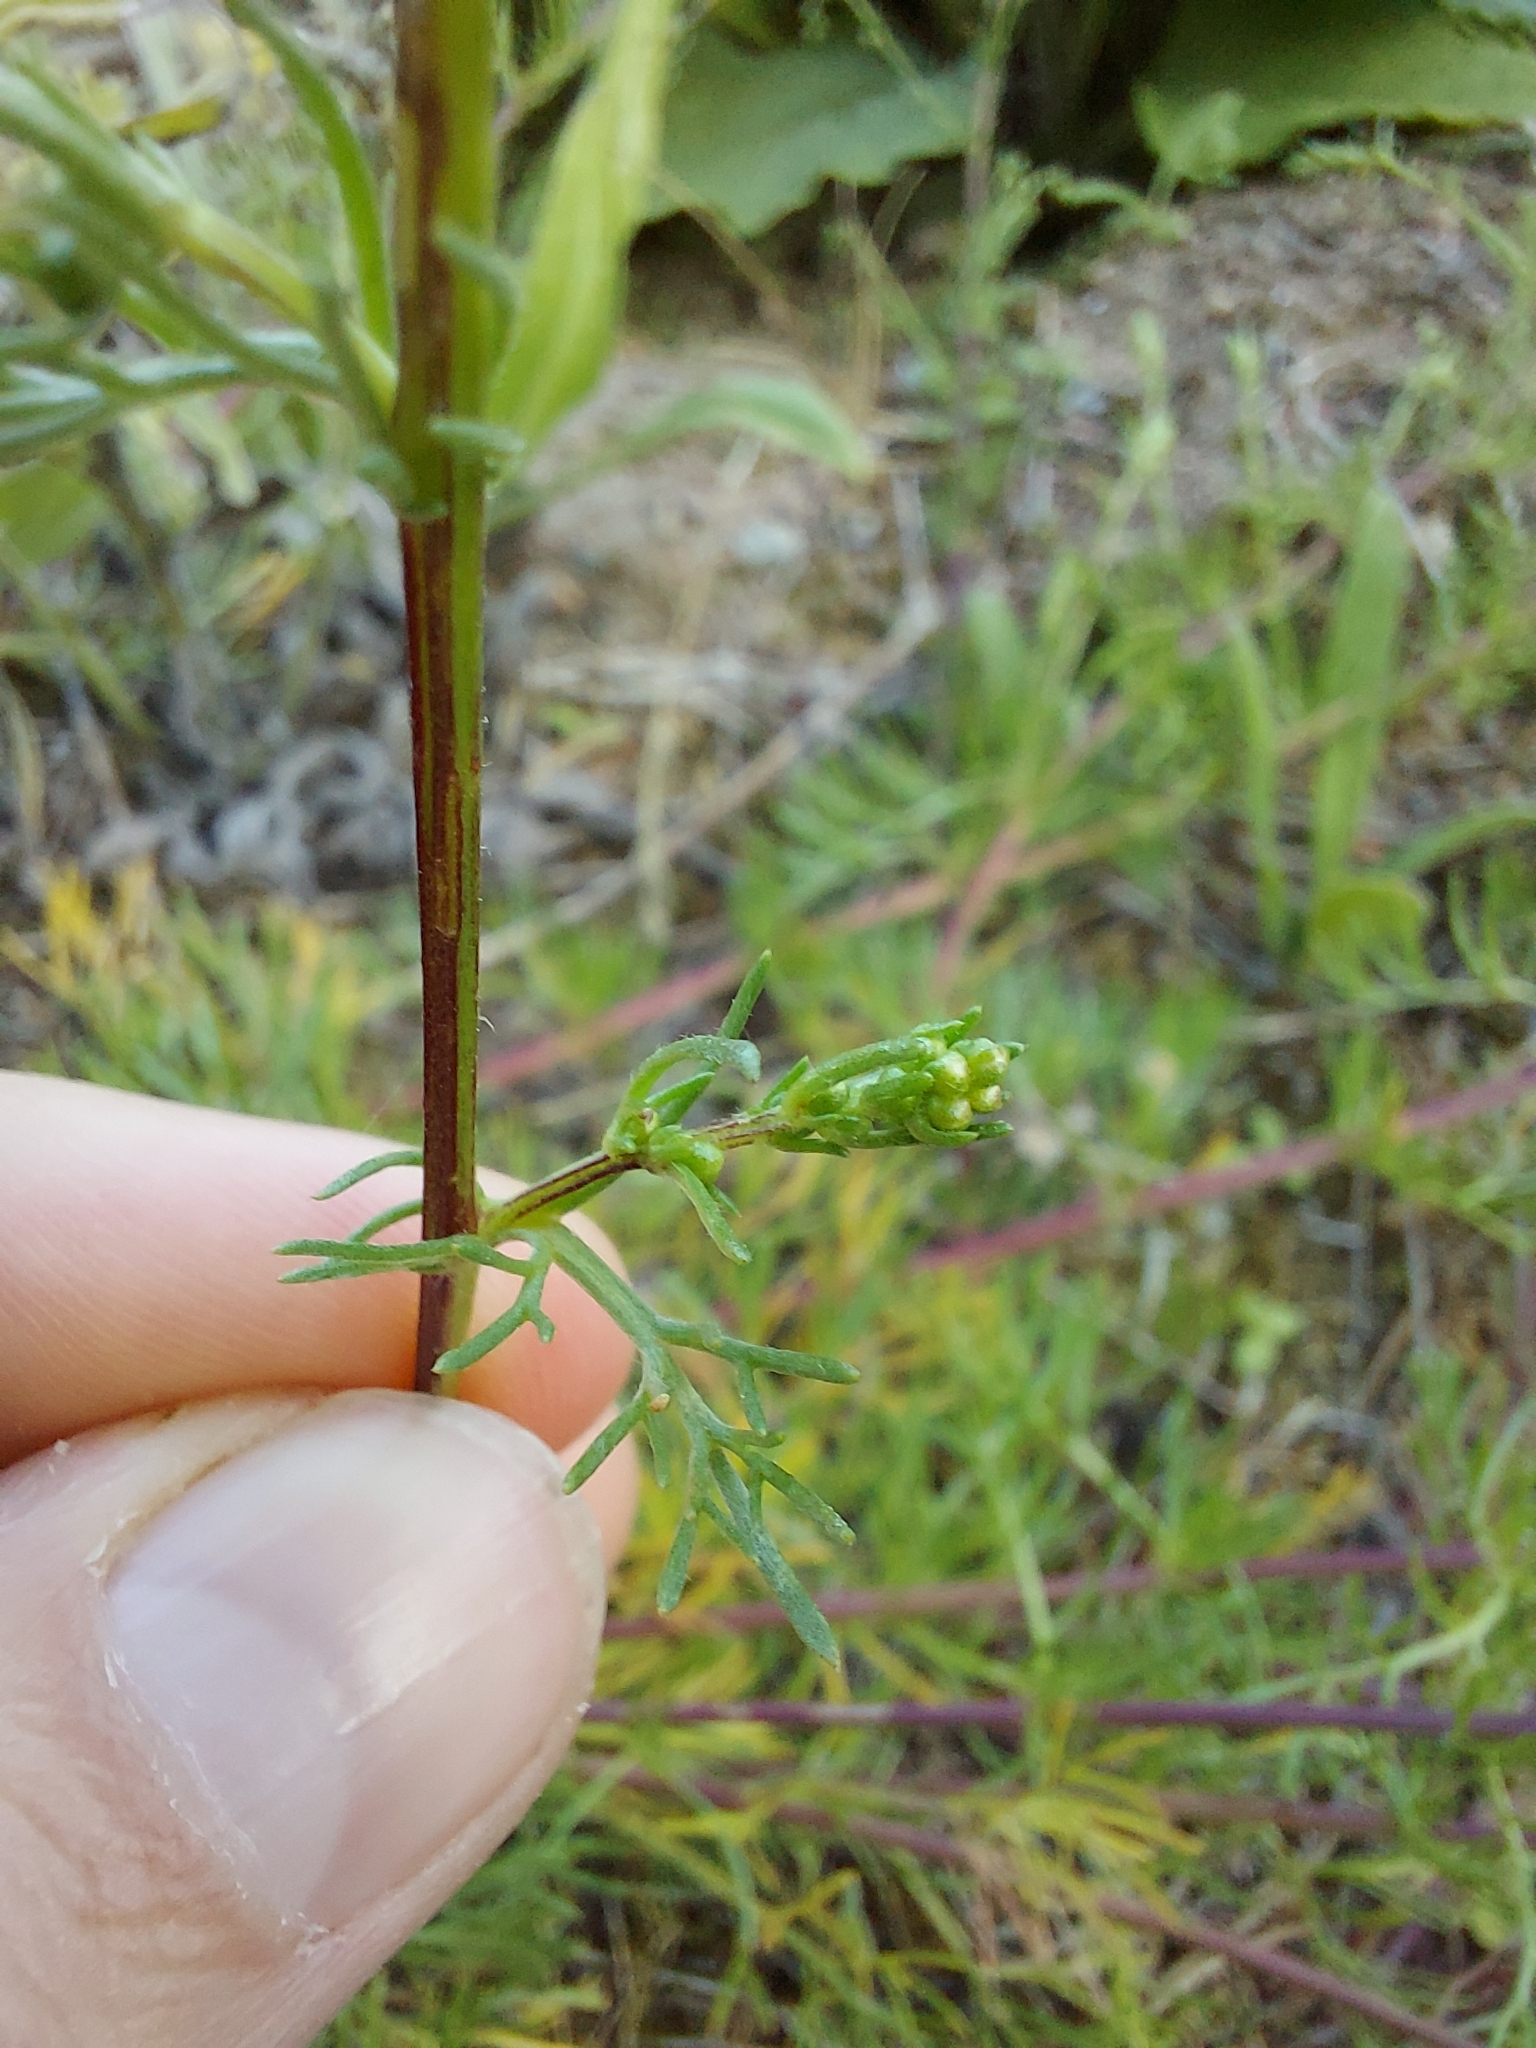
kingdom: Plantae
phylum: Tracheophyta
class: Magnoliopsida
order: Asterales
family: Asteraceae
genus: Artemisia
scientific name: Artemisia campestris
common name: Field wormwood
